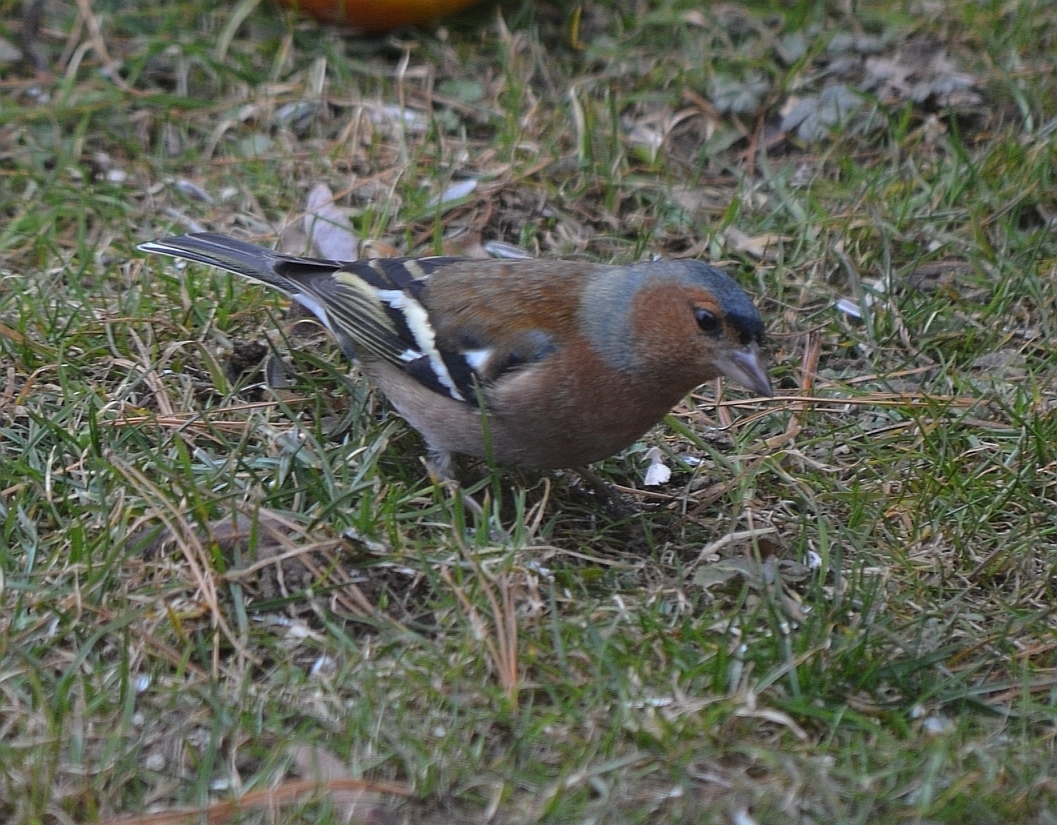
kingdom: Animalia
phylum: Chordata
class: Aves
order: Passeriformes
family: Fringillidae
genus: Fringilla
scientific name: Fringilla coelebs
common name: Common chaffinch
